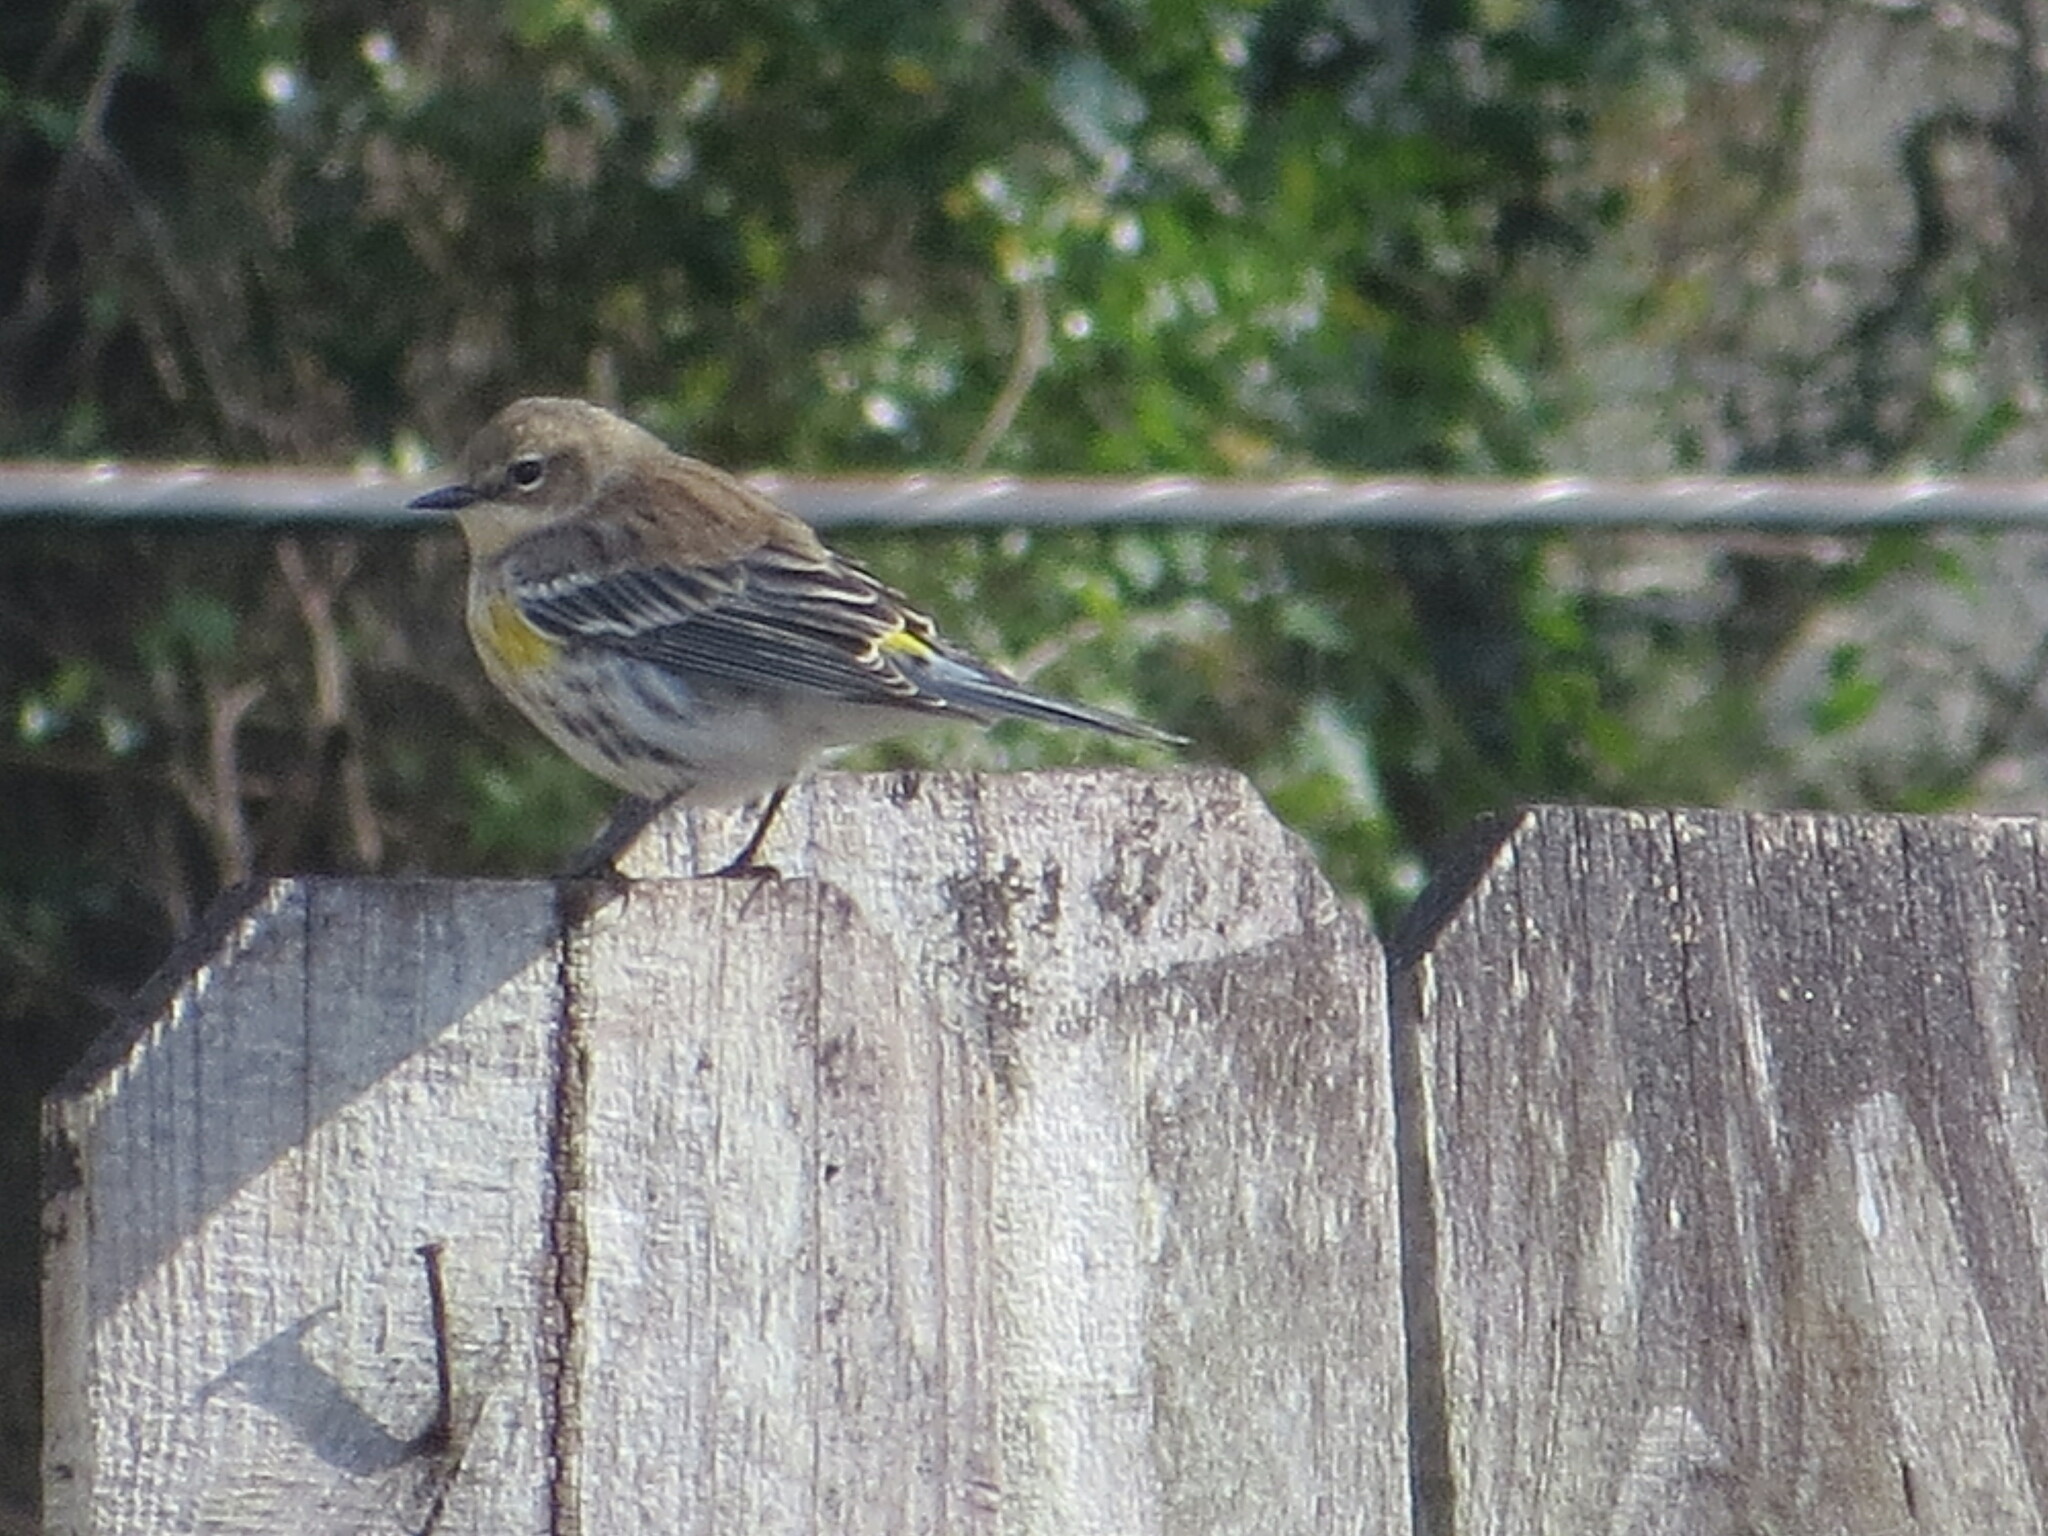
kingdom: Animalia
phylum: Chordata
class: Aves
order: Passeriformes
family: Parulidae
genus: Setophaga
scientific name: Setophaga coronata
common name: Myrtle warbler
